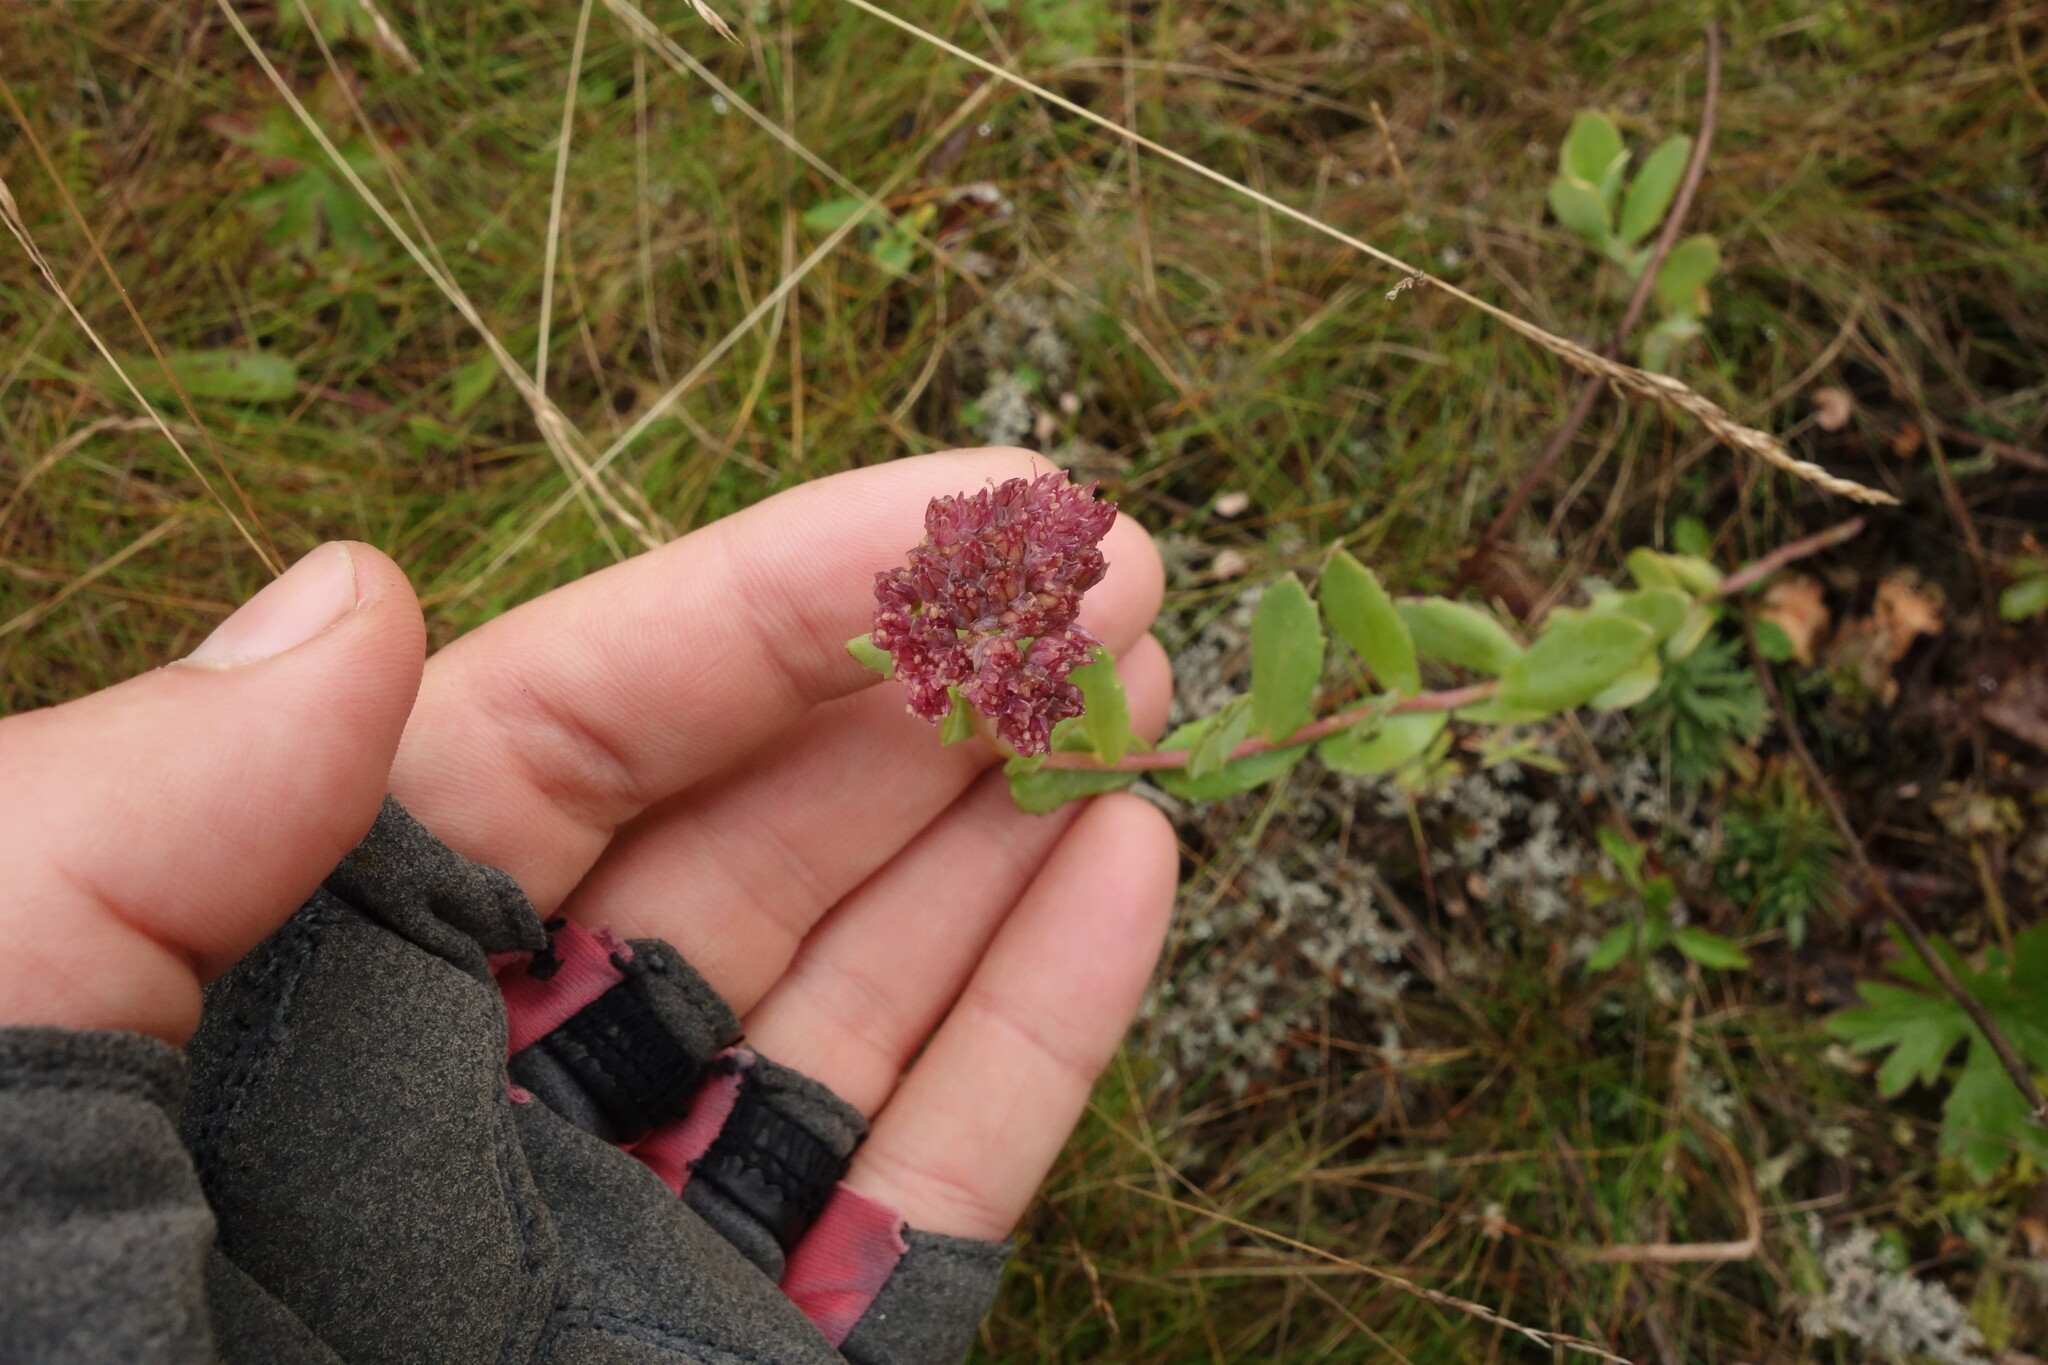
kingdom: Plantae
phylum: Tracheophyta
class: Magnoliopsida
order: Saxifragales
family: Crassulaceae
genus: Hylotelephium
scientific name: Hylotelephium telephium
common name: Live-forever
